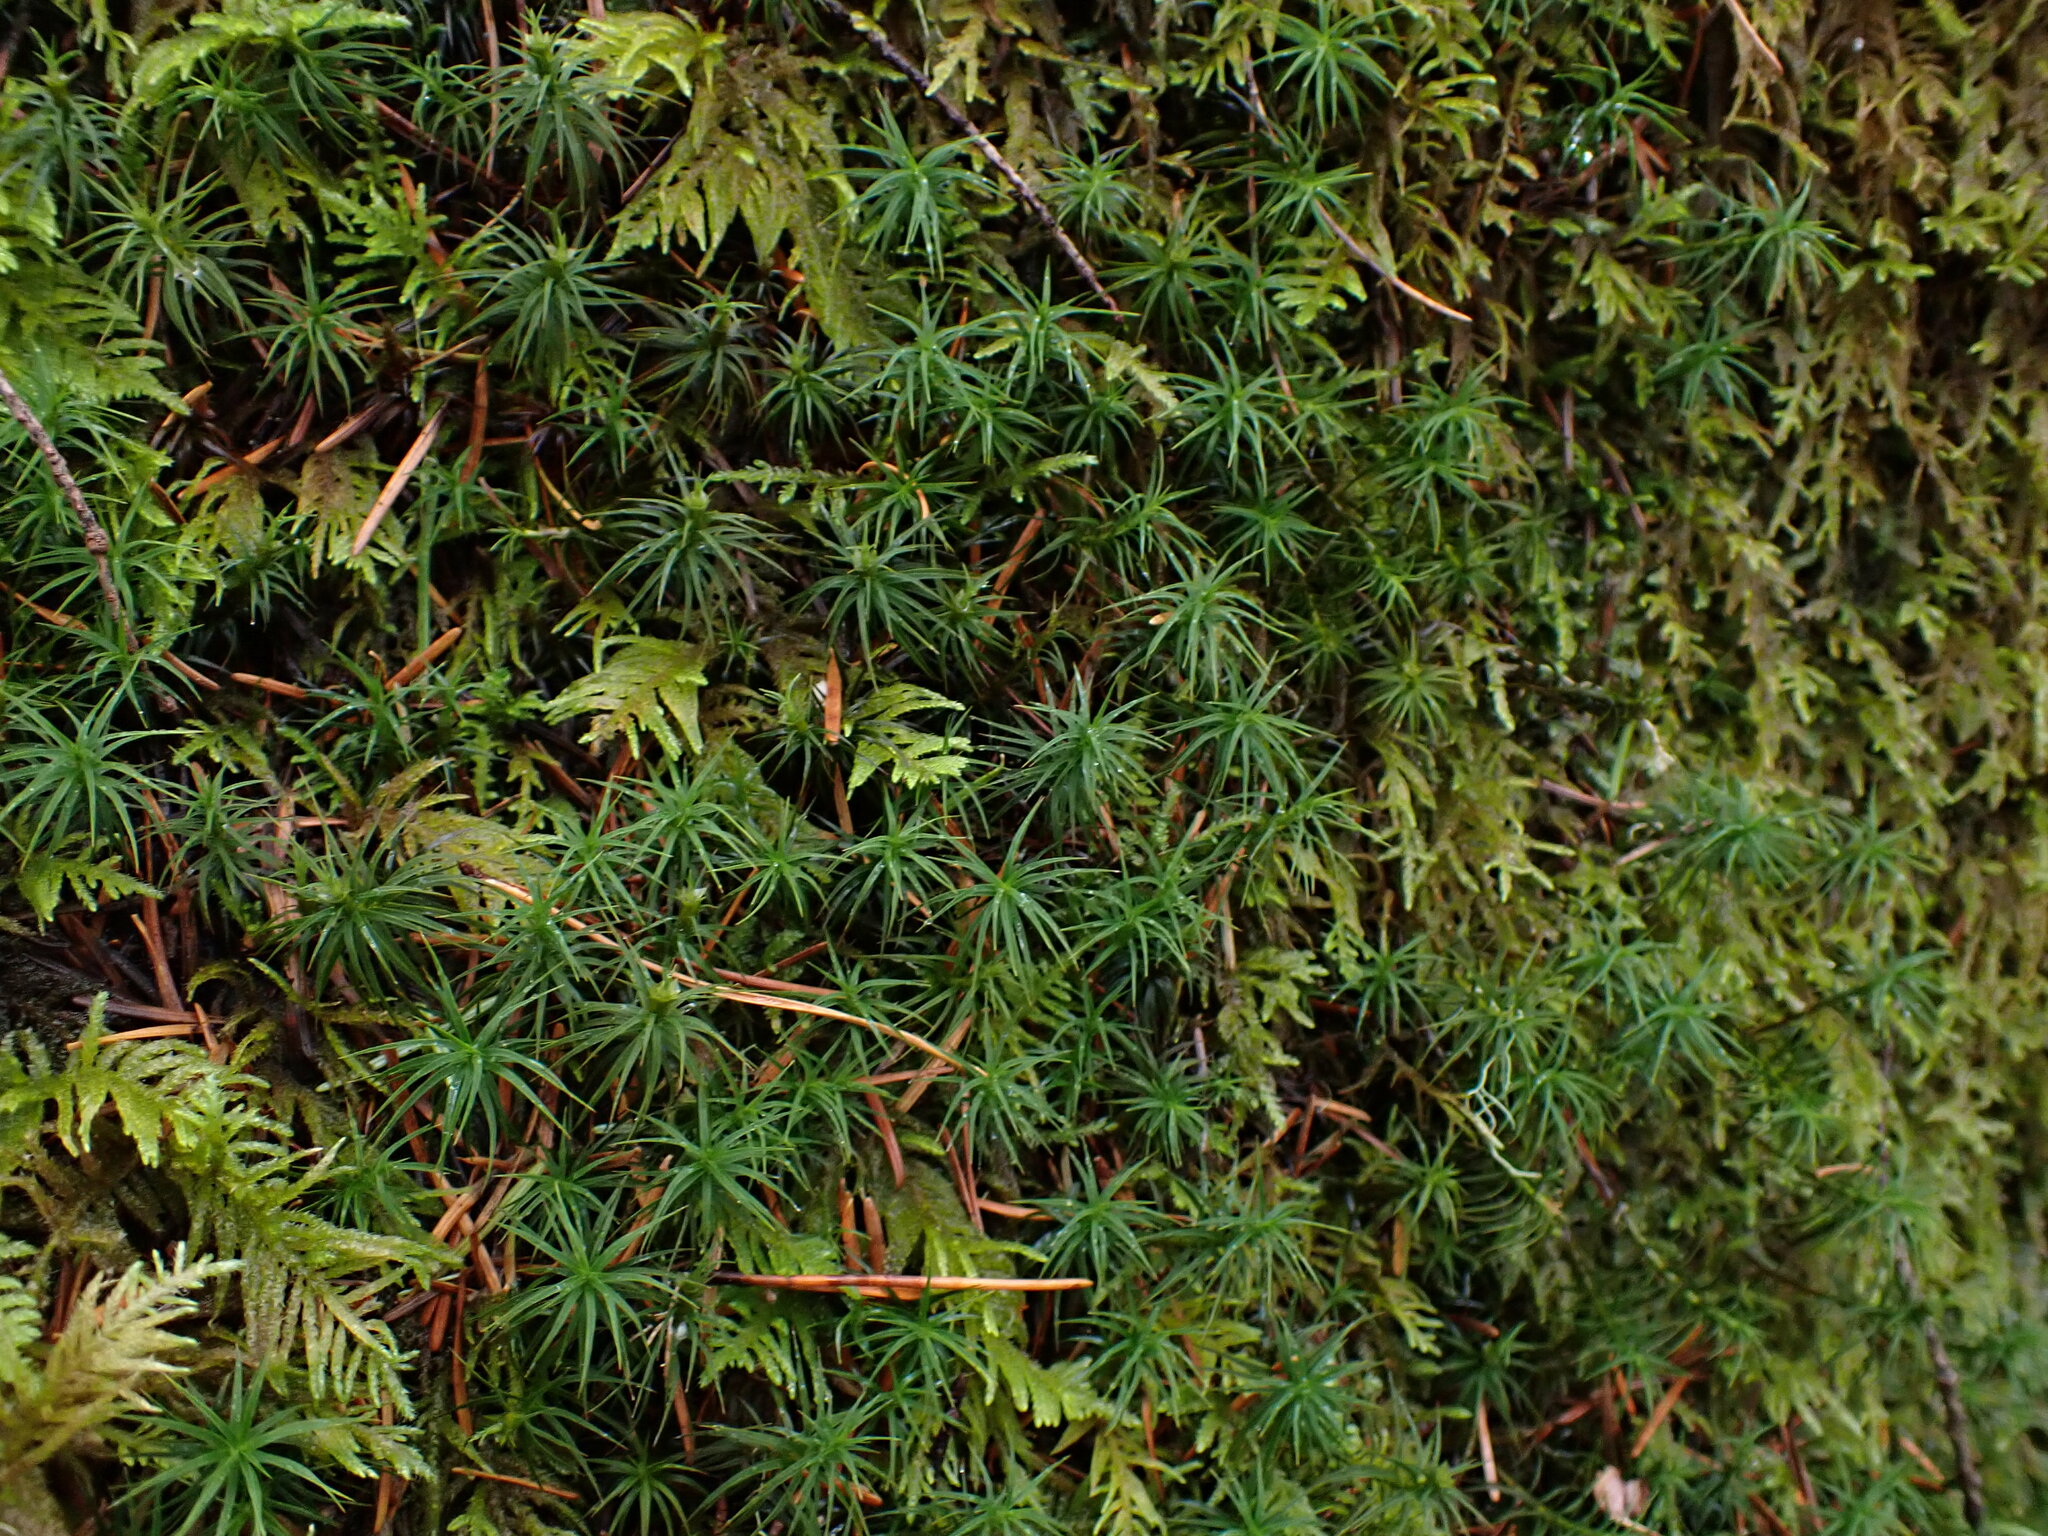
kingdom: Plantae
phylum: Bryophyta
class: Polytrichopsida
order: Polytrichales
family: Polytrichaceae
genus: Polytrichastrum
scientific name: Polytrichastrum alpinum
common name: Alpine haircap
